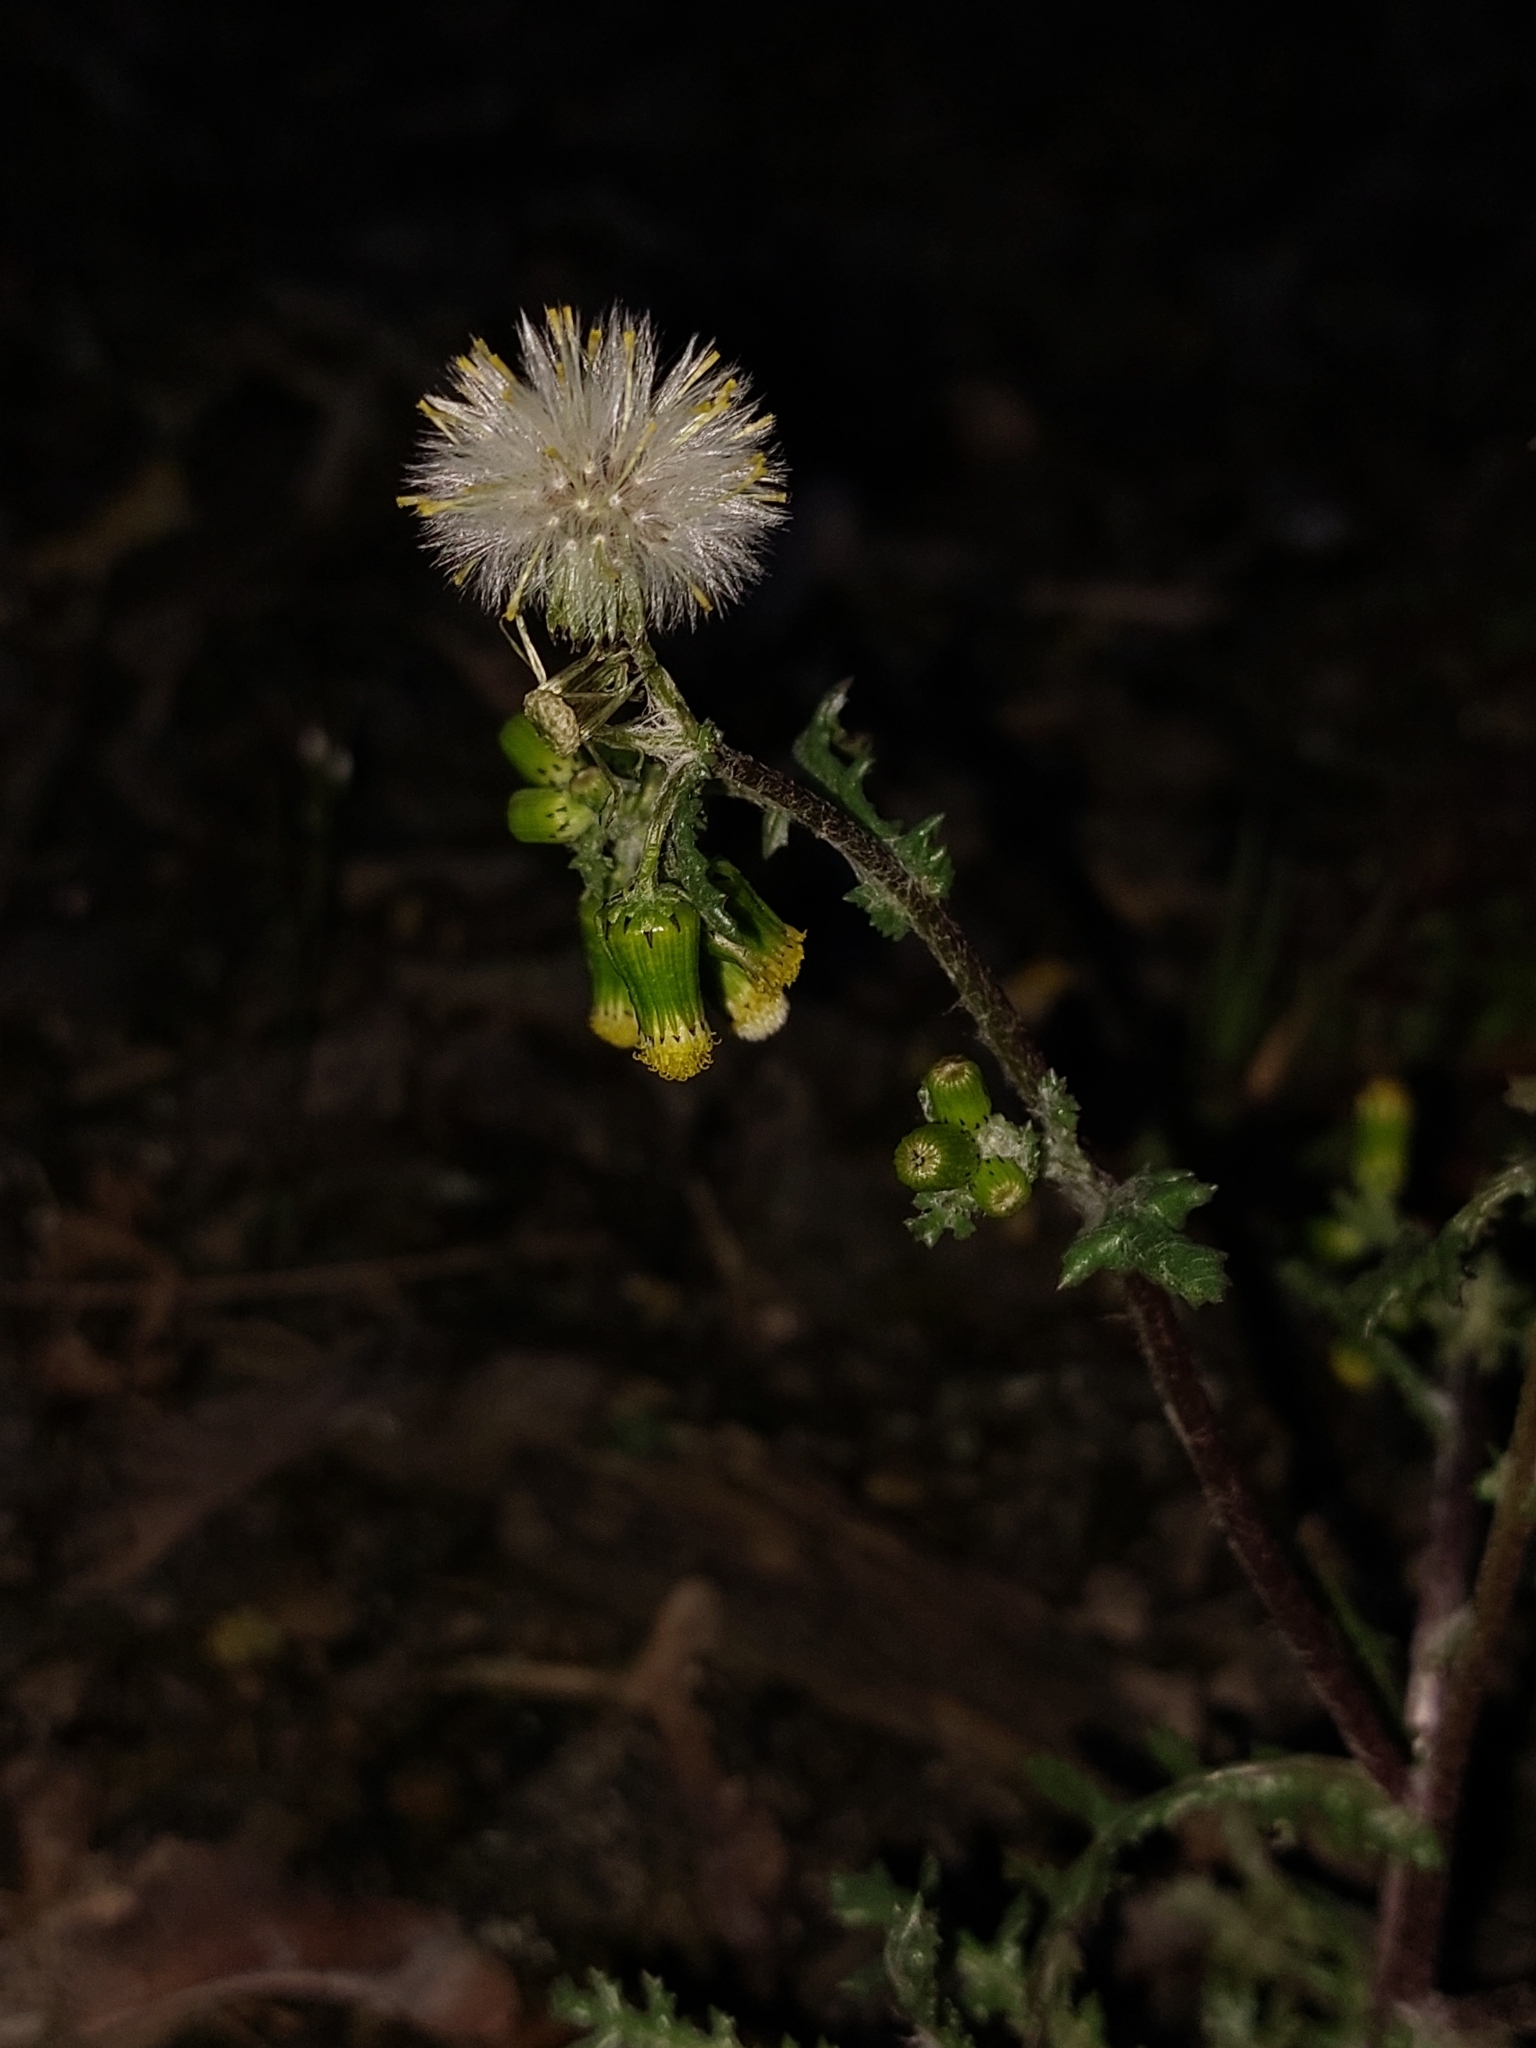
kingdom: Plantae
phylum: Tracheophyta
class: Magnoliopsida
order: Asterales
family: Asteraceae
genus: Senecio
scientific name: Senecio vulgaris
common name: Old-man-in-the-spring
